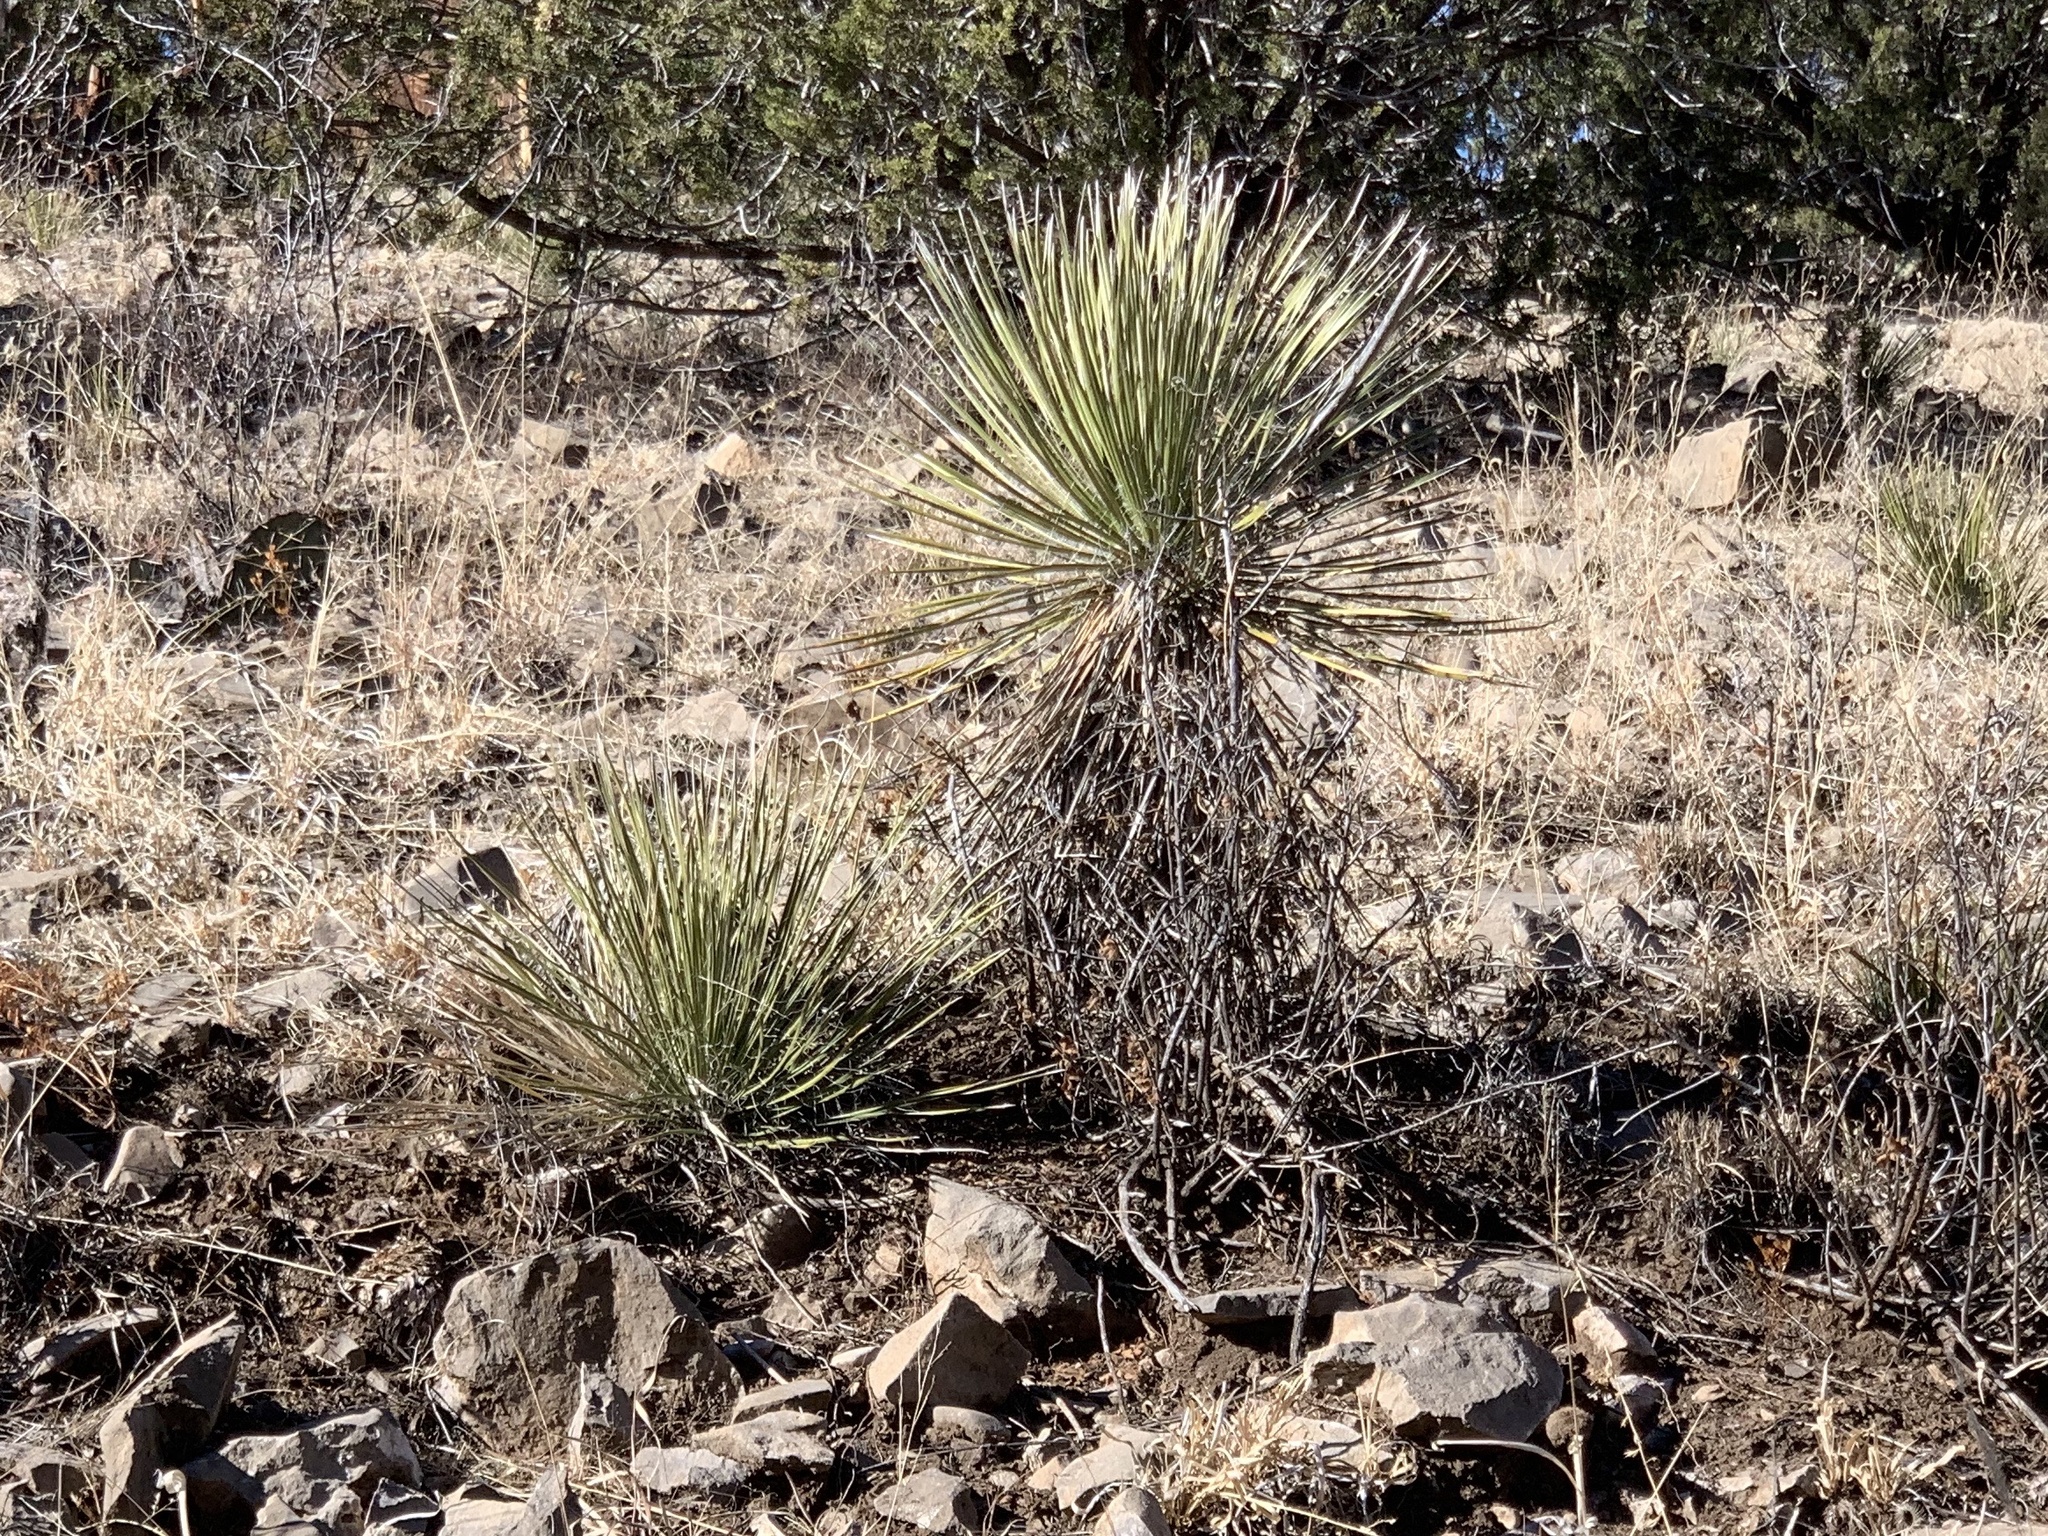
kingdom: Plantae
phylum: Tracheophyta
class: Liliopsida
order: Asparagales
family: Asparagaceae
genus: Yucca
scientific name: Yucca elata
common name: Palmella
